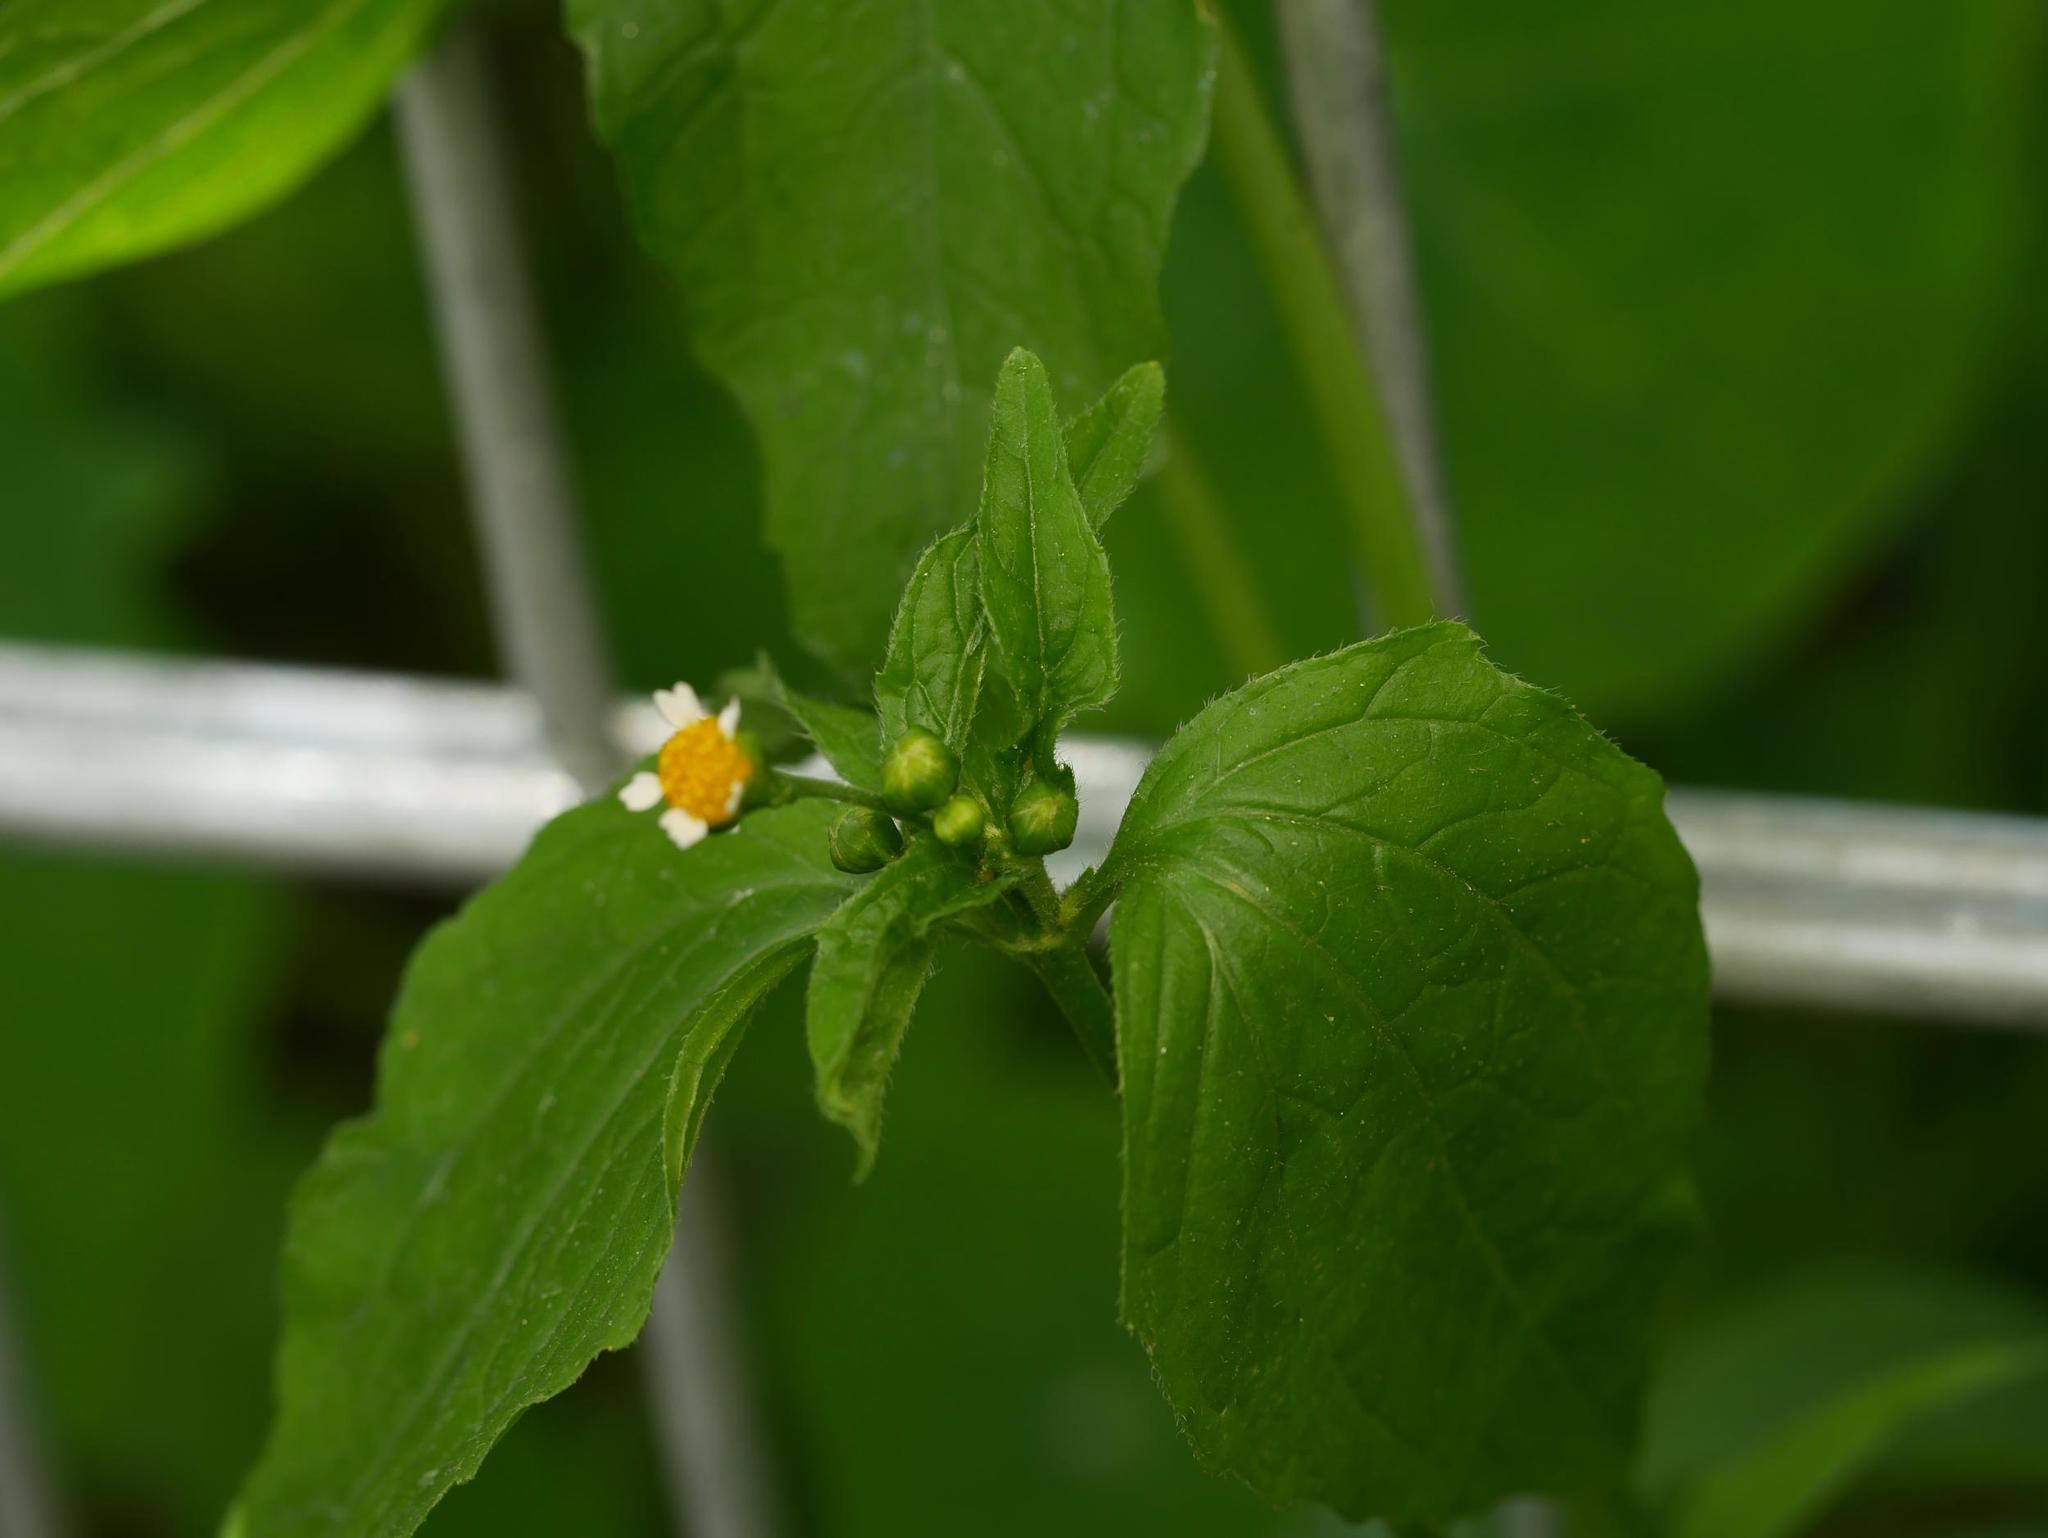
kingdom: Plantae
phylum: Tracheophyta
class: Magnoliopsida
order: Asterales
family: Asteraceae
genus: Galinsoga
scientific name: Galinsoga parviflora
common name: Gallant soldier
